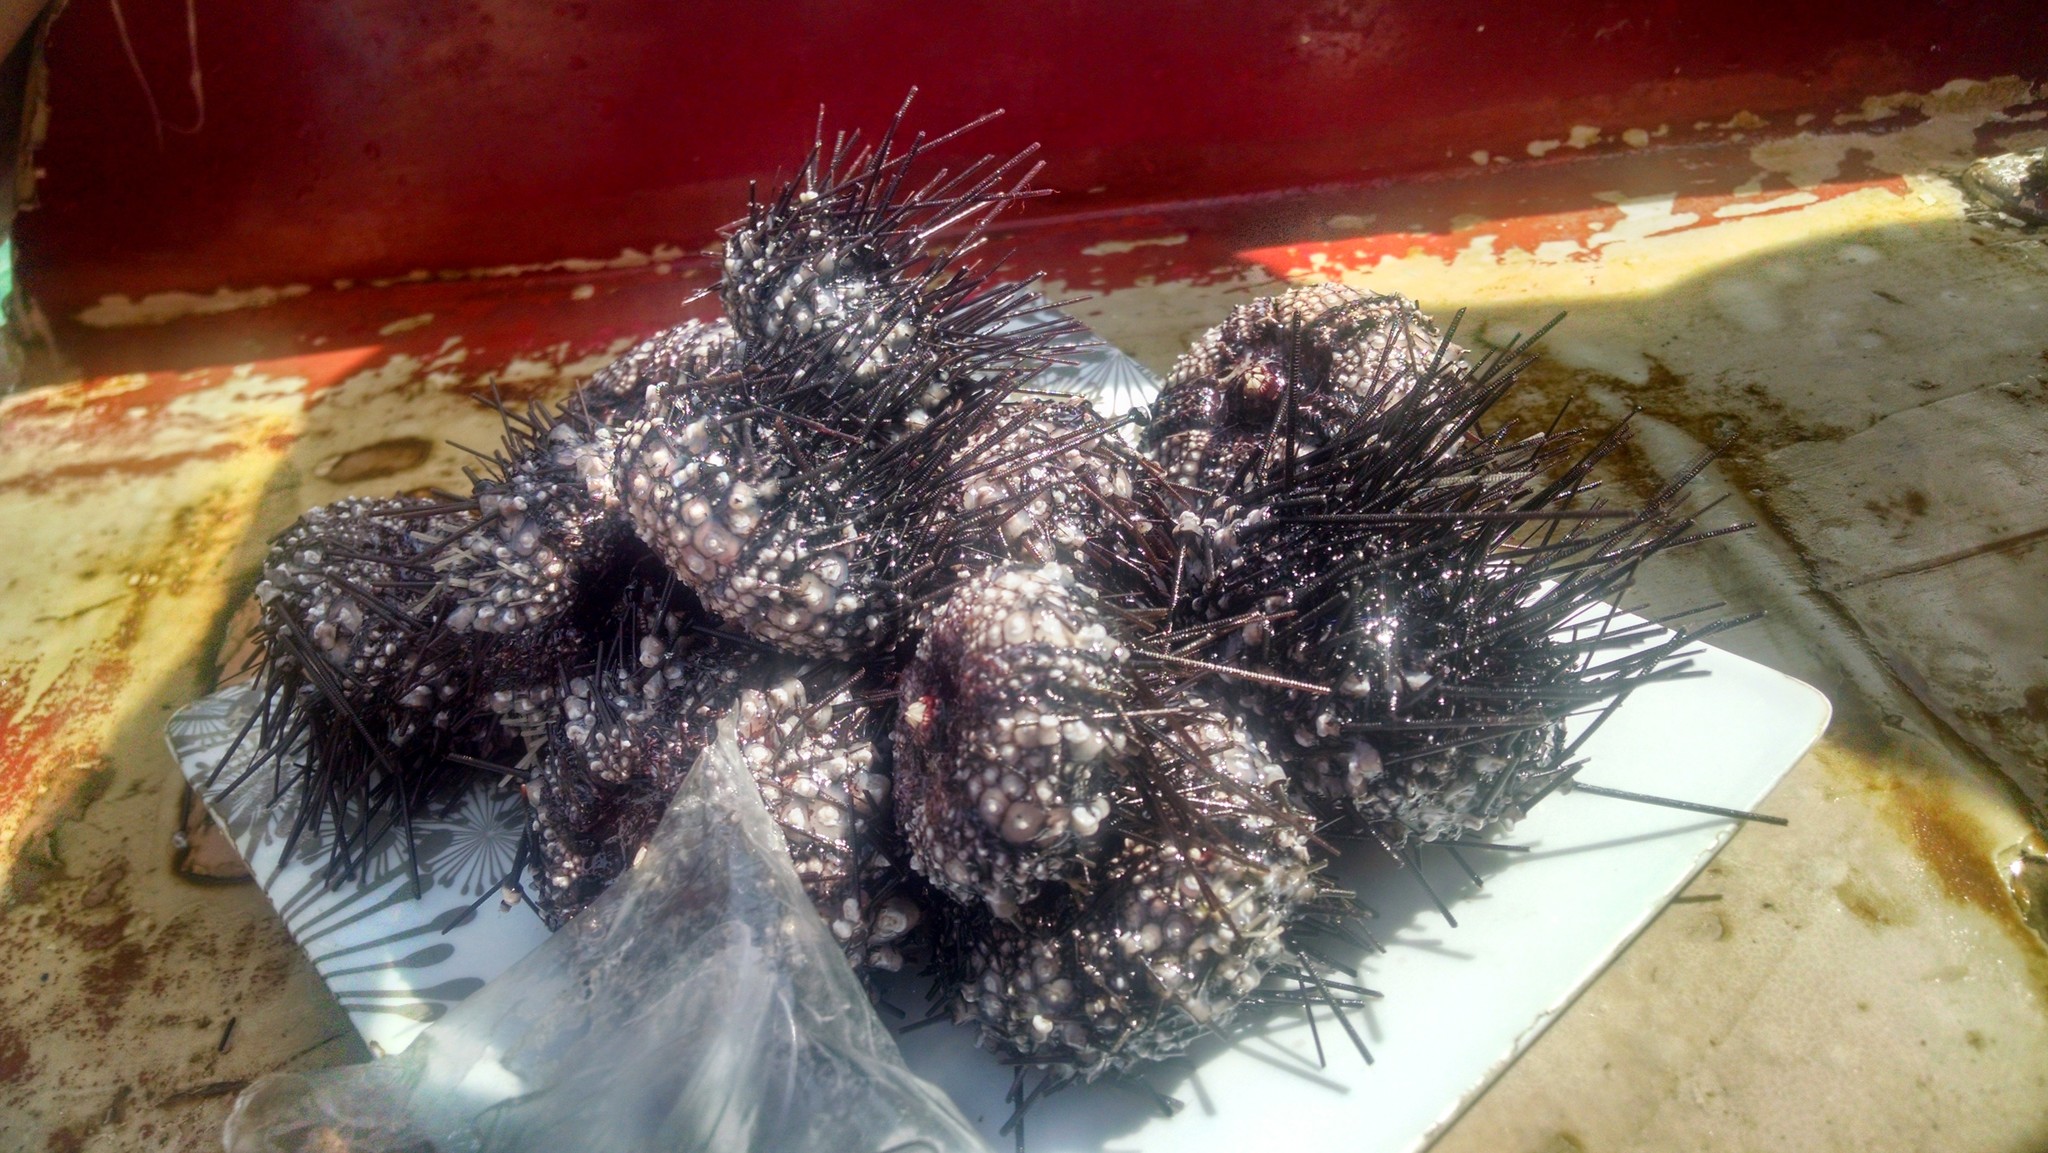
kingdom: Animalia
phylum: Echinodermata
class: Echinoidea
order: Diadematoida
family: Diadematidae
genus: Diadema
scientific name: Diadema setosum
